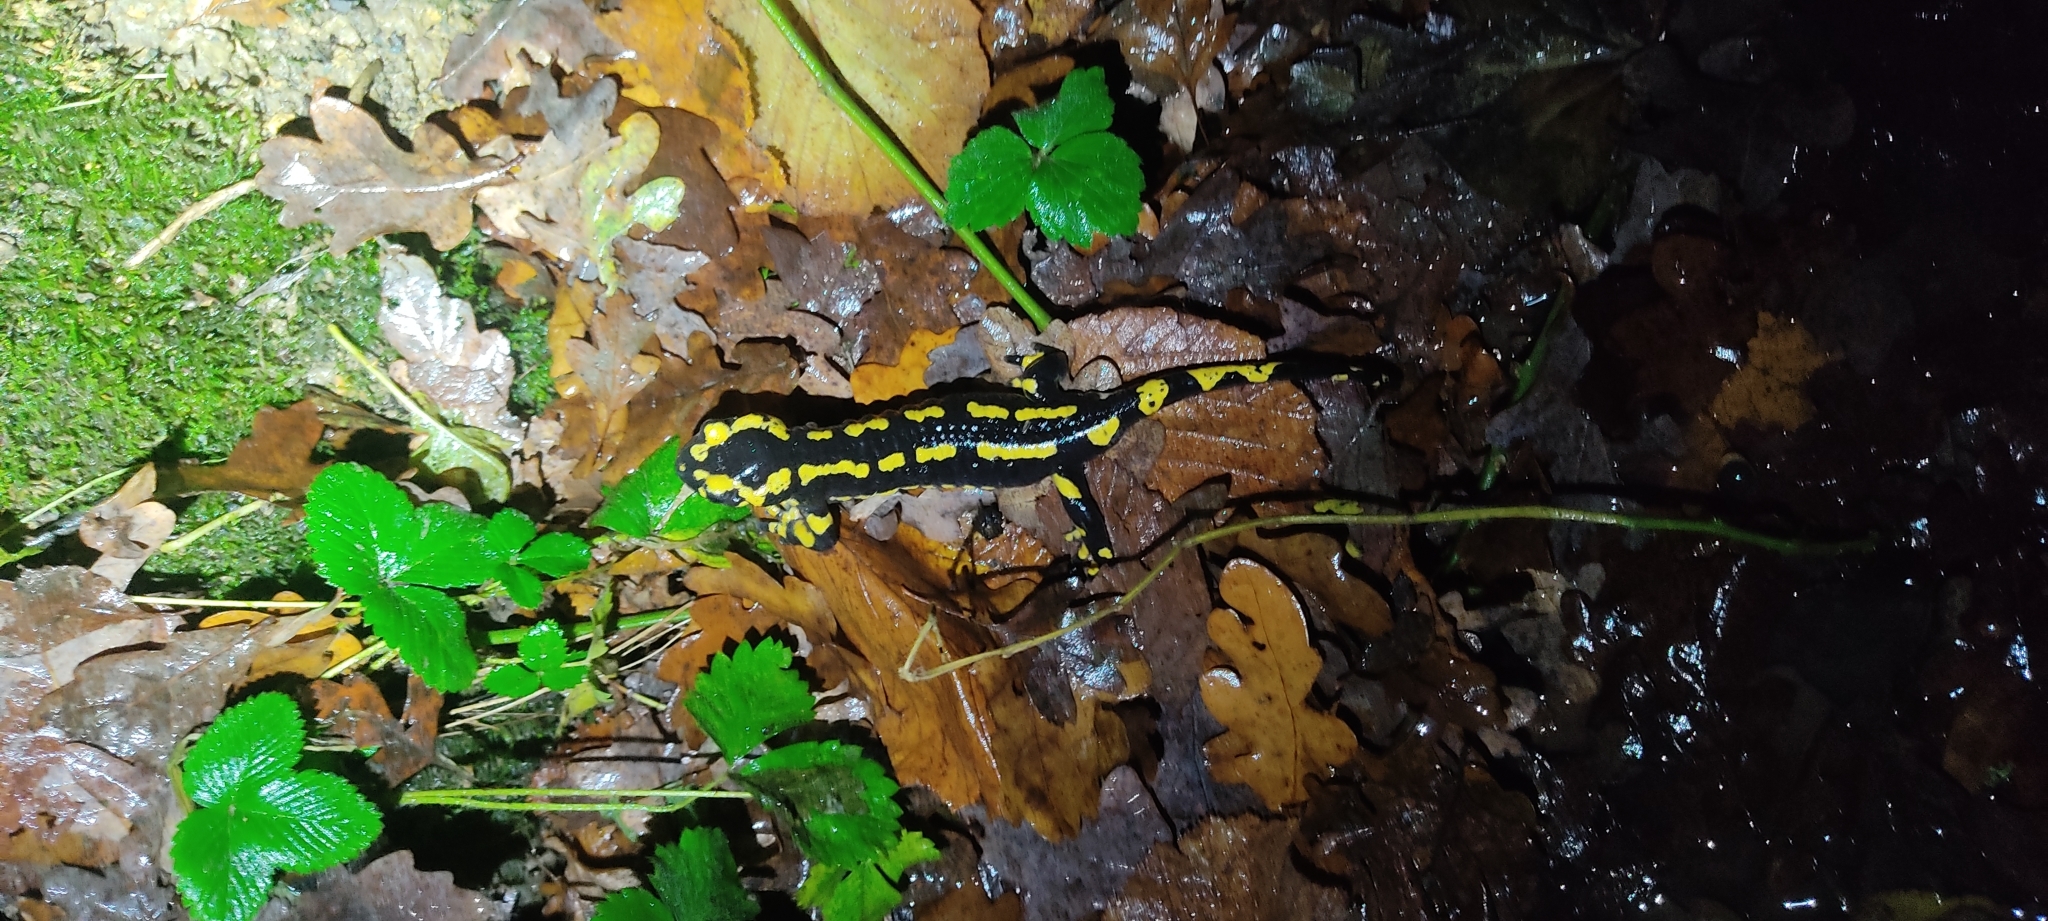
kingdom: Animalia
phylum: Chordata
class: Amphibia
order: Caudata
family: Salamandridae
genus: Salamandra
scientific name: Salamandra salamandra
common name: Fire salamander
